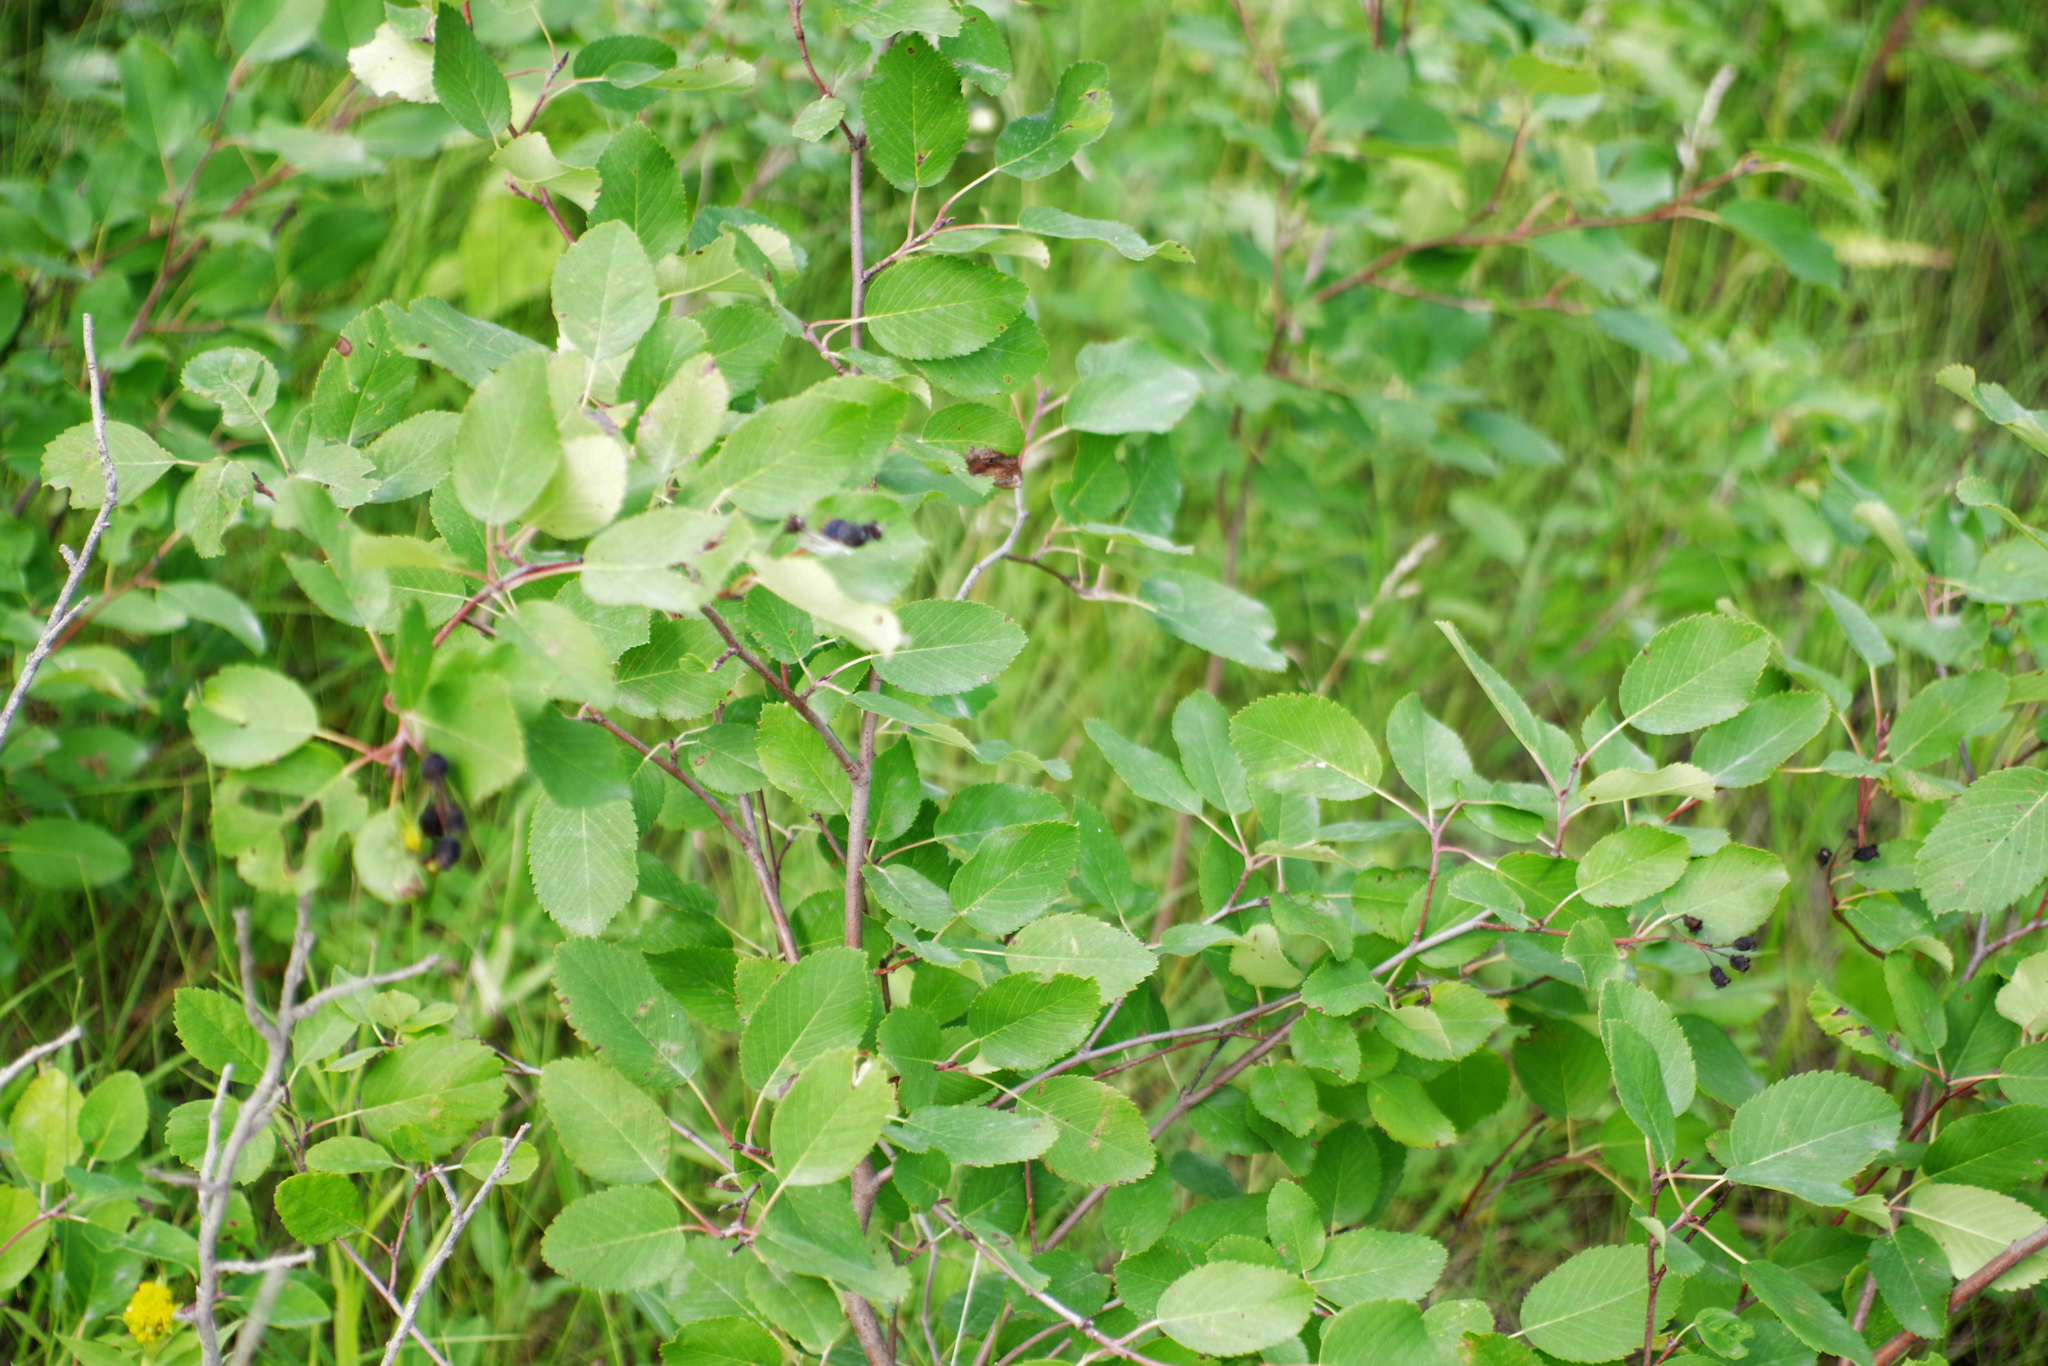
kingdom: Plantae
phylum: Tracheophyta
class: Magnoliopsida
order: Rosales
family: Rosaceae
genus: Amelanchier
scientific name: Amelanchier alnifolia
